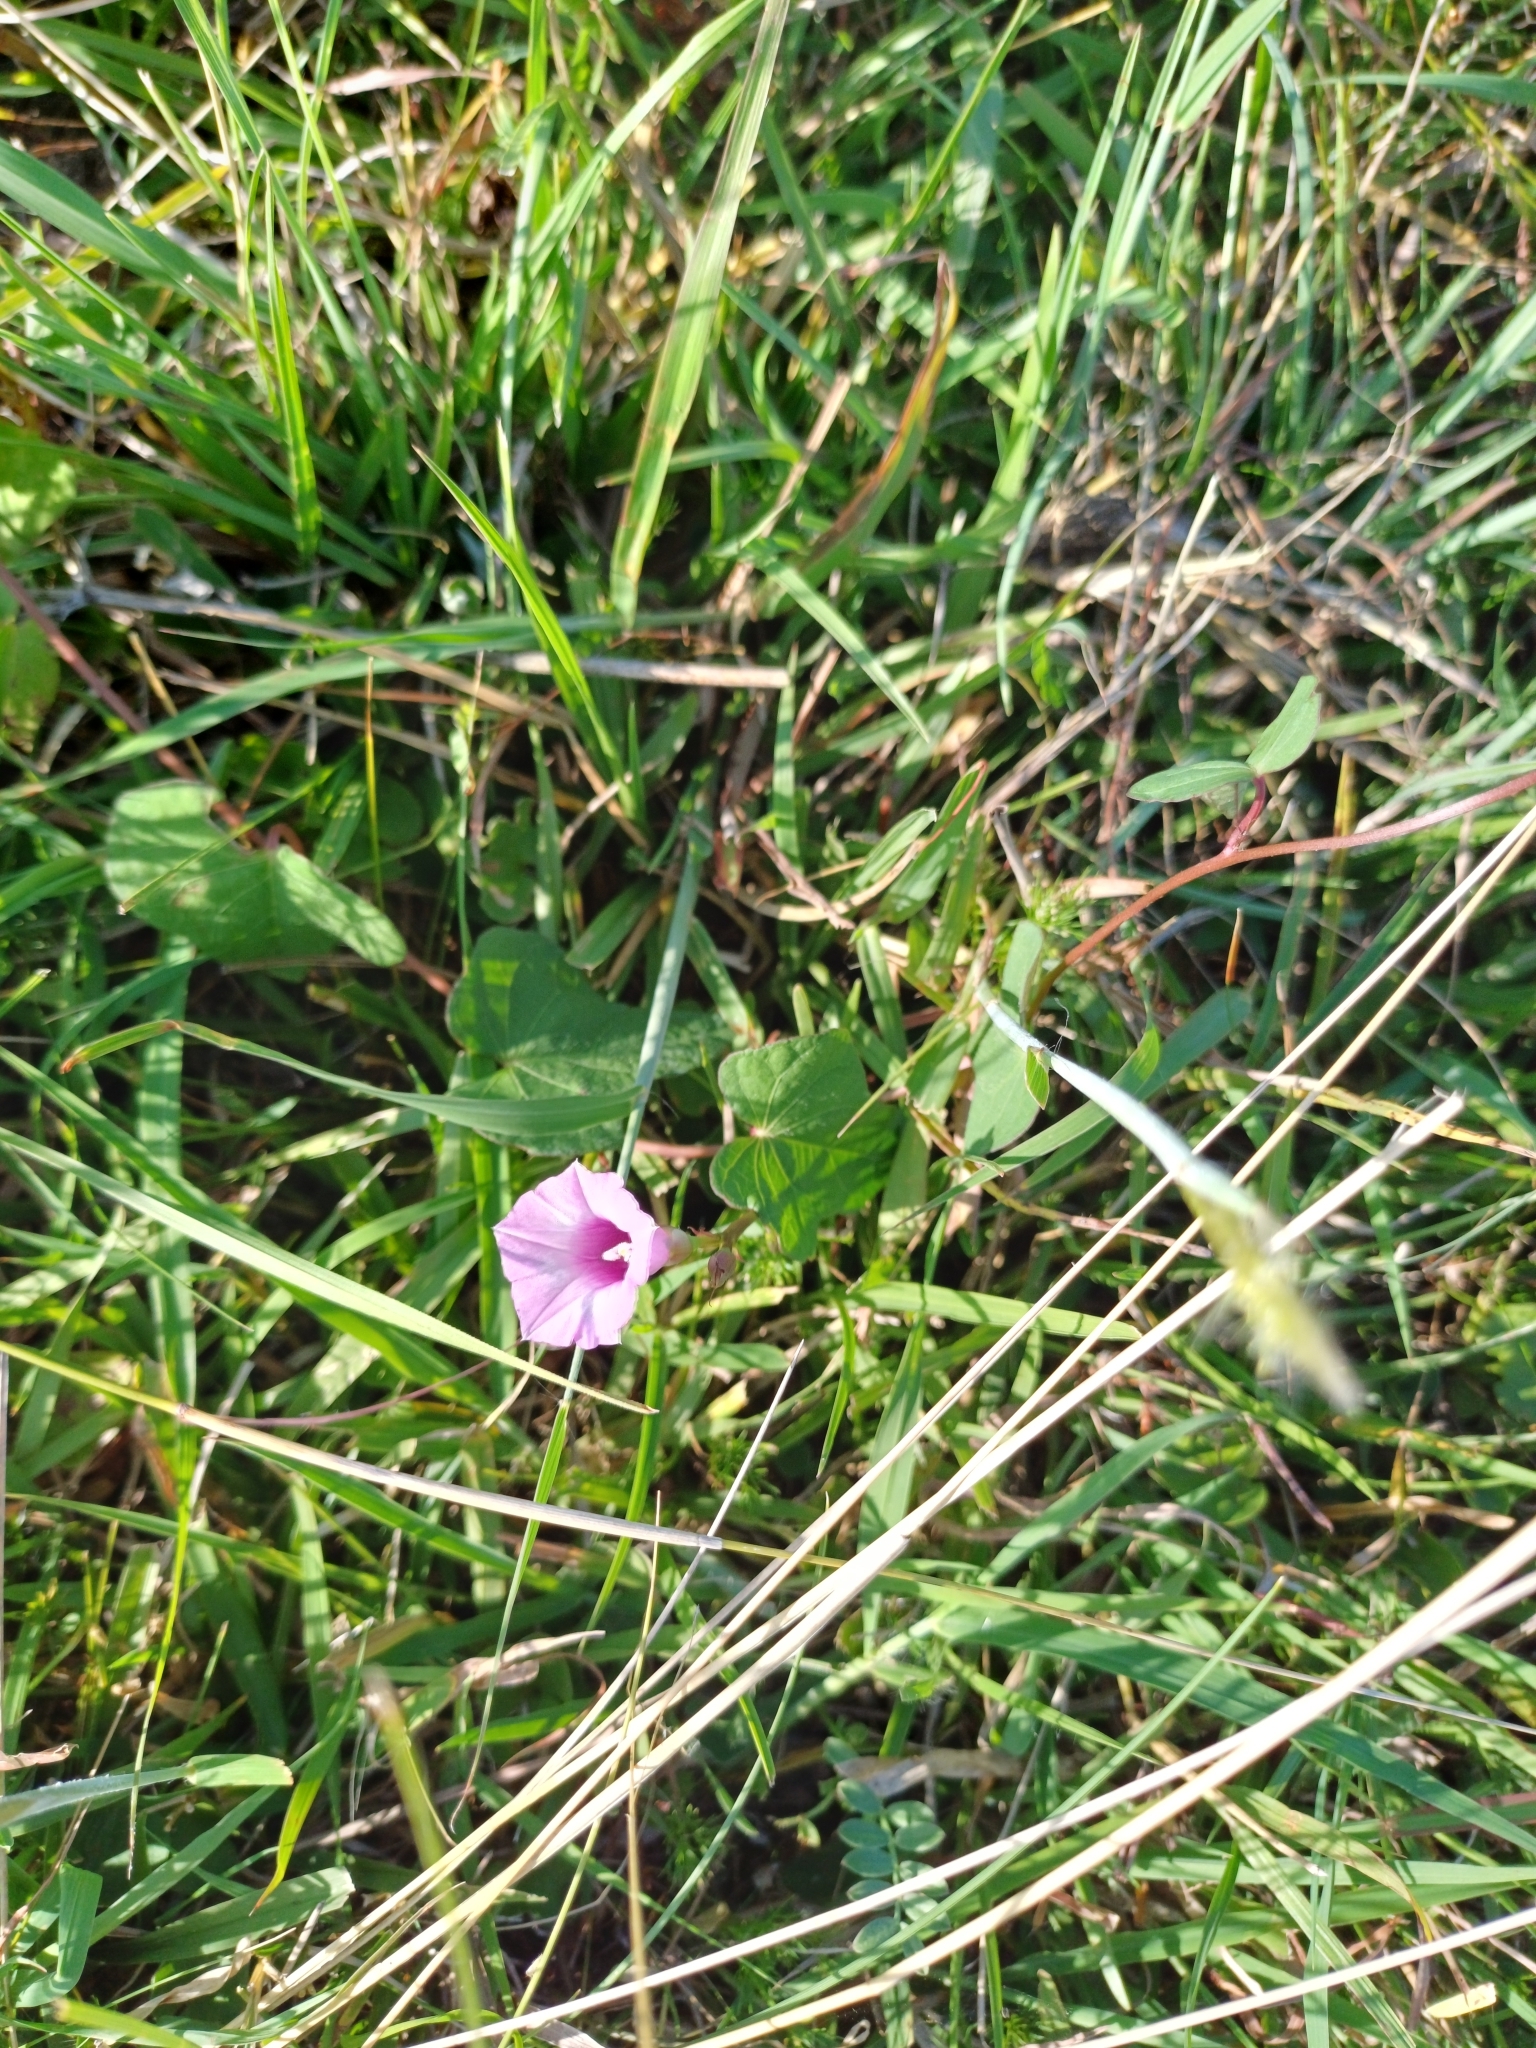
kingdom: Plantae
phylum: Tracheophyta
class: Magnoliopsida
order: Solanales
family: Convolvulaceae
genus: Ipomoea
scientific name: Ipomoea grandifolia
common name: Aiea morning glory
